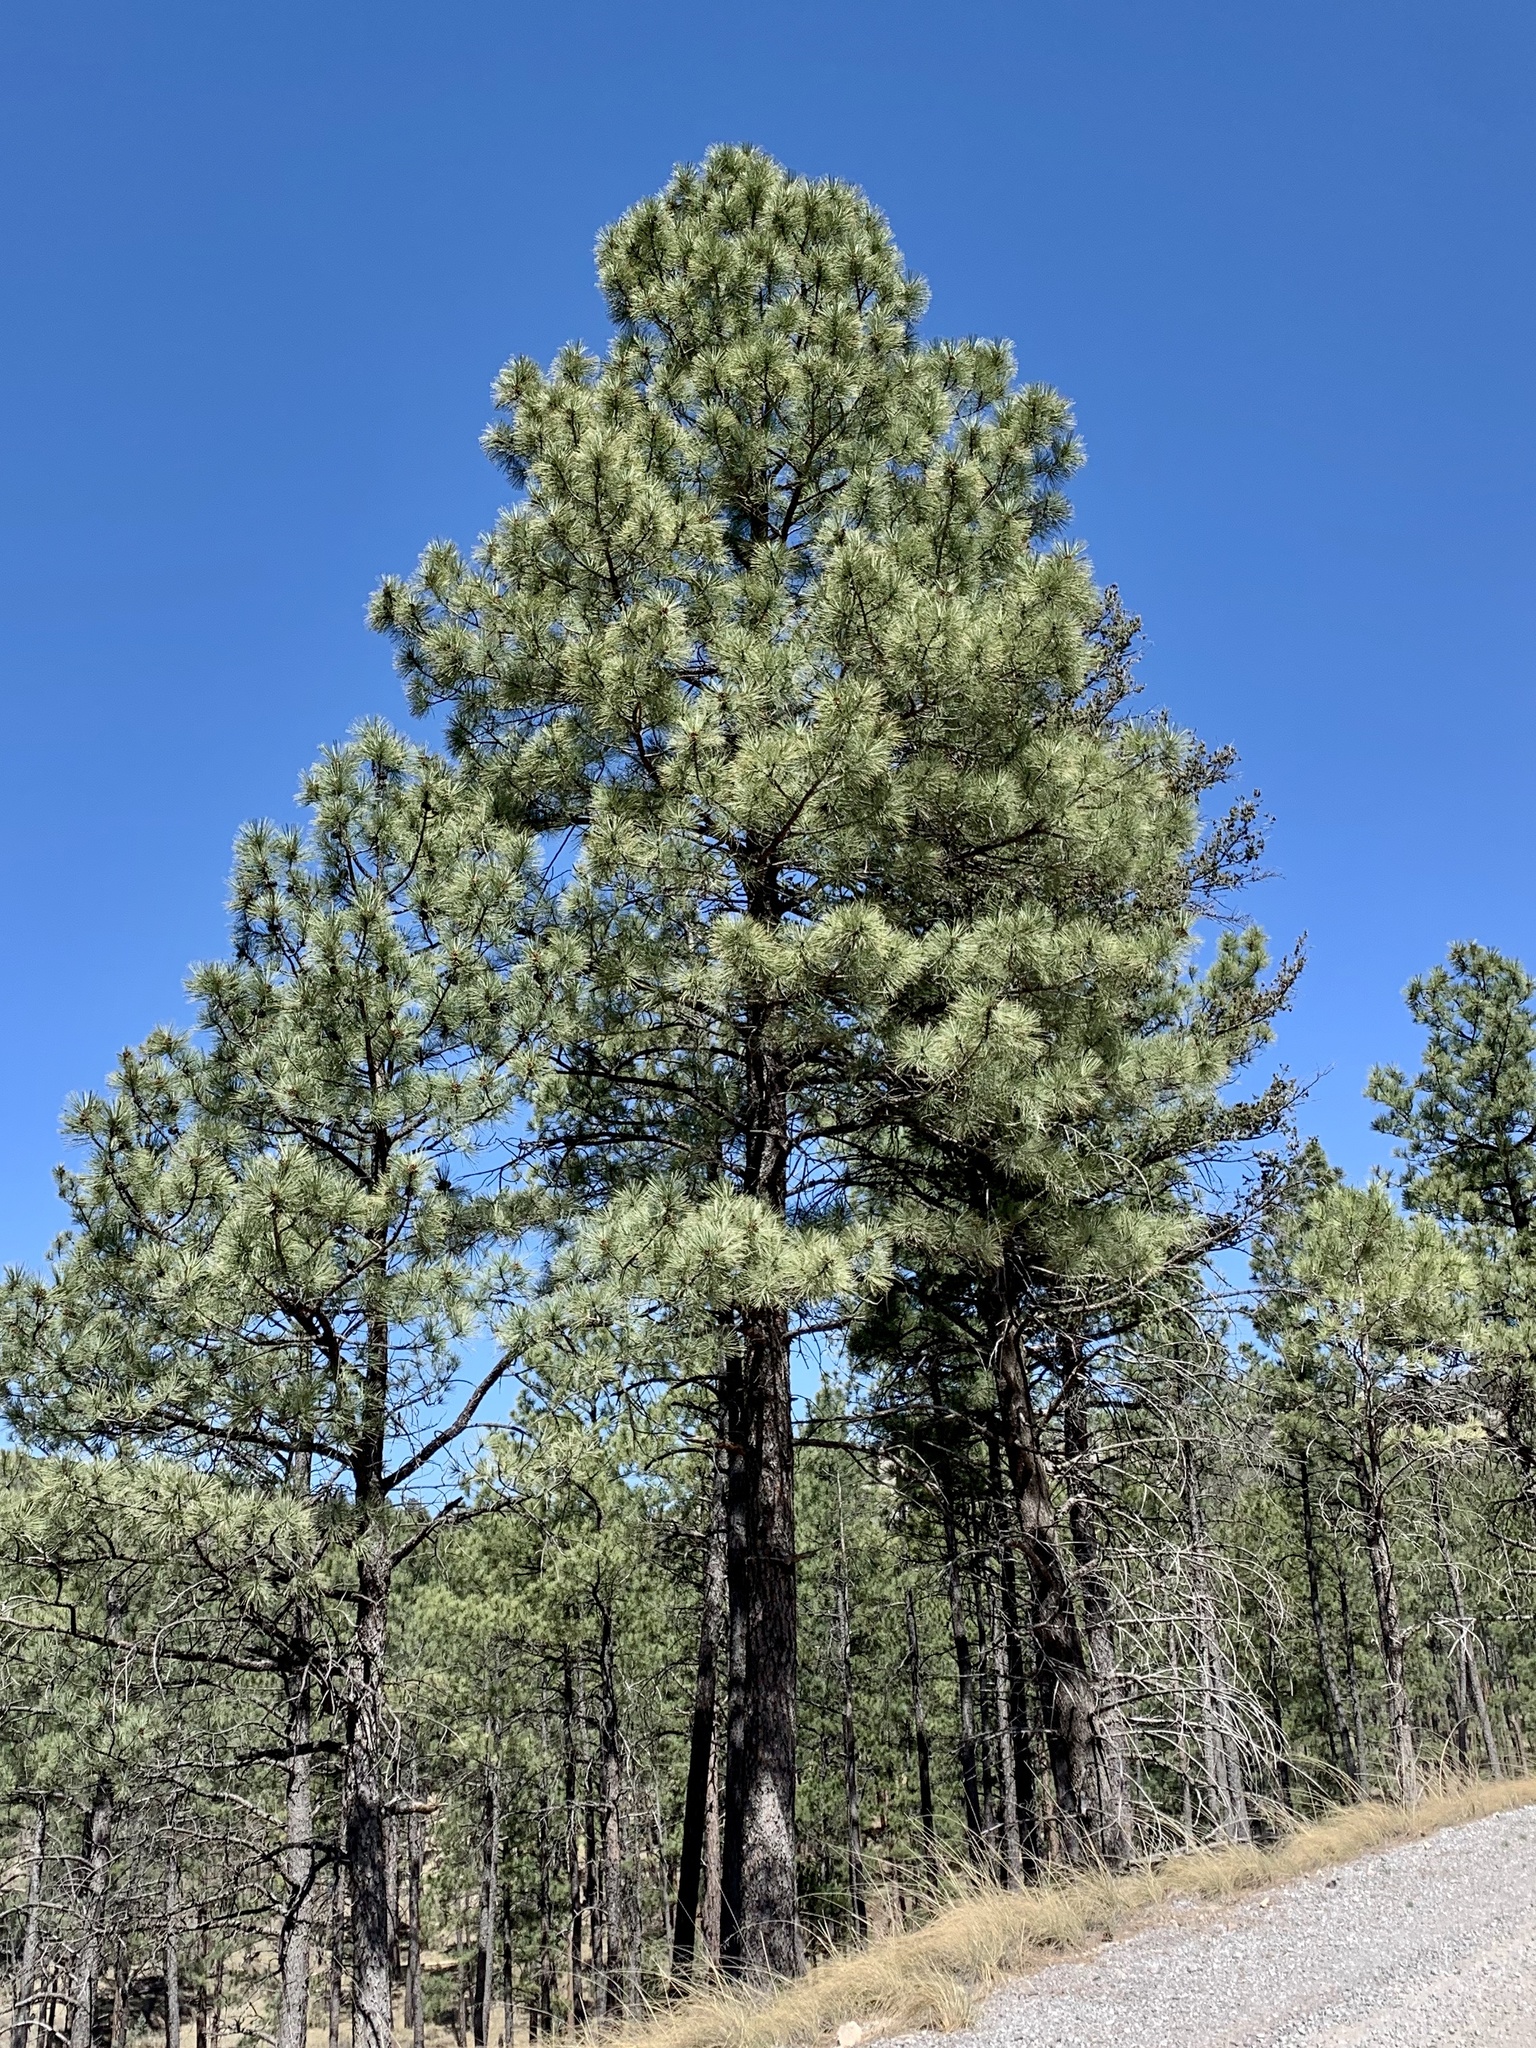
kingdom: Plantae
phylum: Tracheophyta
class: Pinopsida
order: Pinales
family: Pinaceae
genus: Pinus
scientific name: Pinus ponderosa
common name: Western yellow-pine
